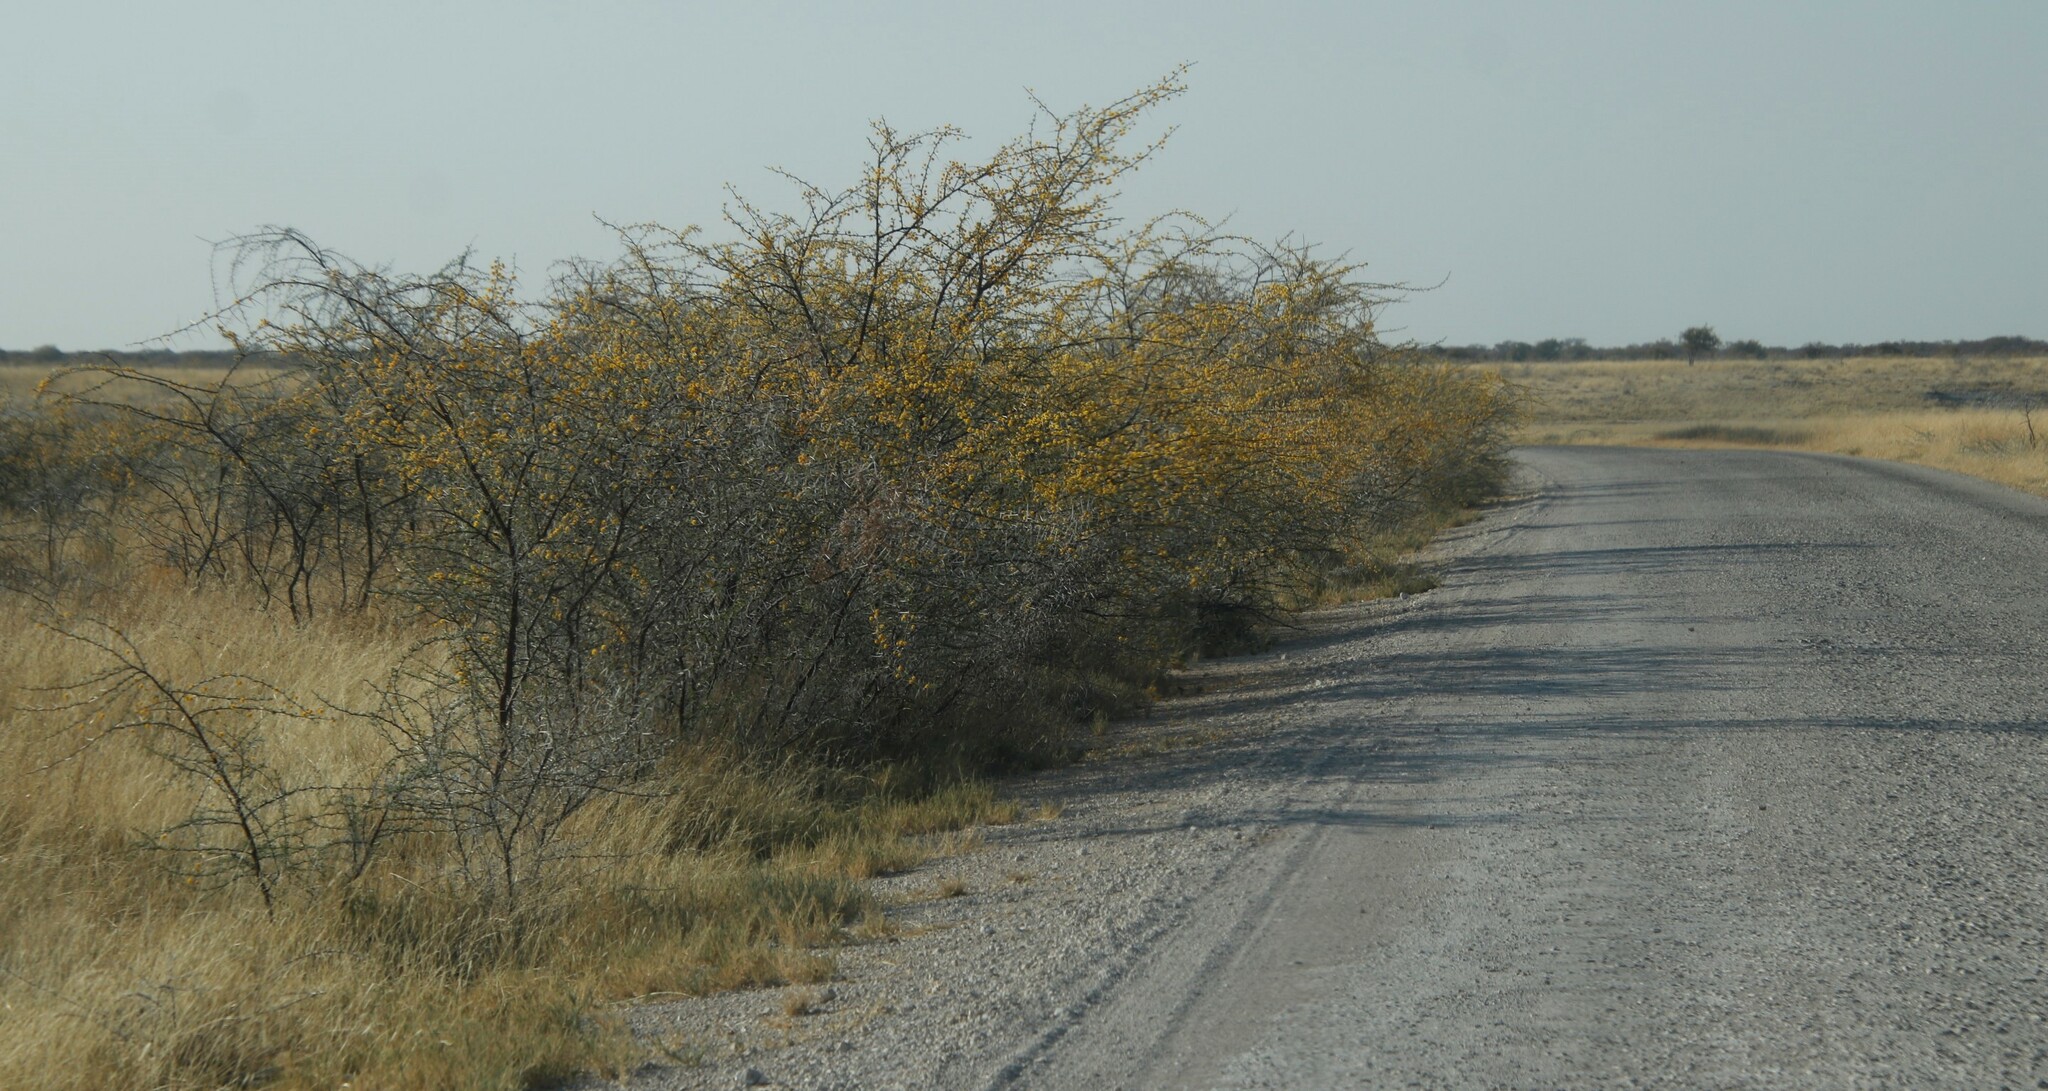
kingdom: Plantae
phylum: Tracheophyta
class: Magnoliopsida
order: Fabales
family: Fabaceae
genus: Vachellia
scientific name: Vachellia nebrownii
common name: Water acacia
